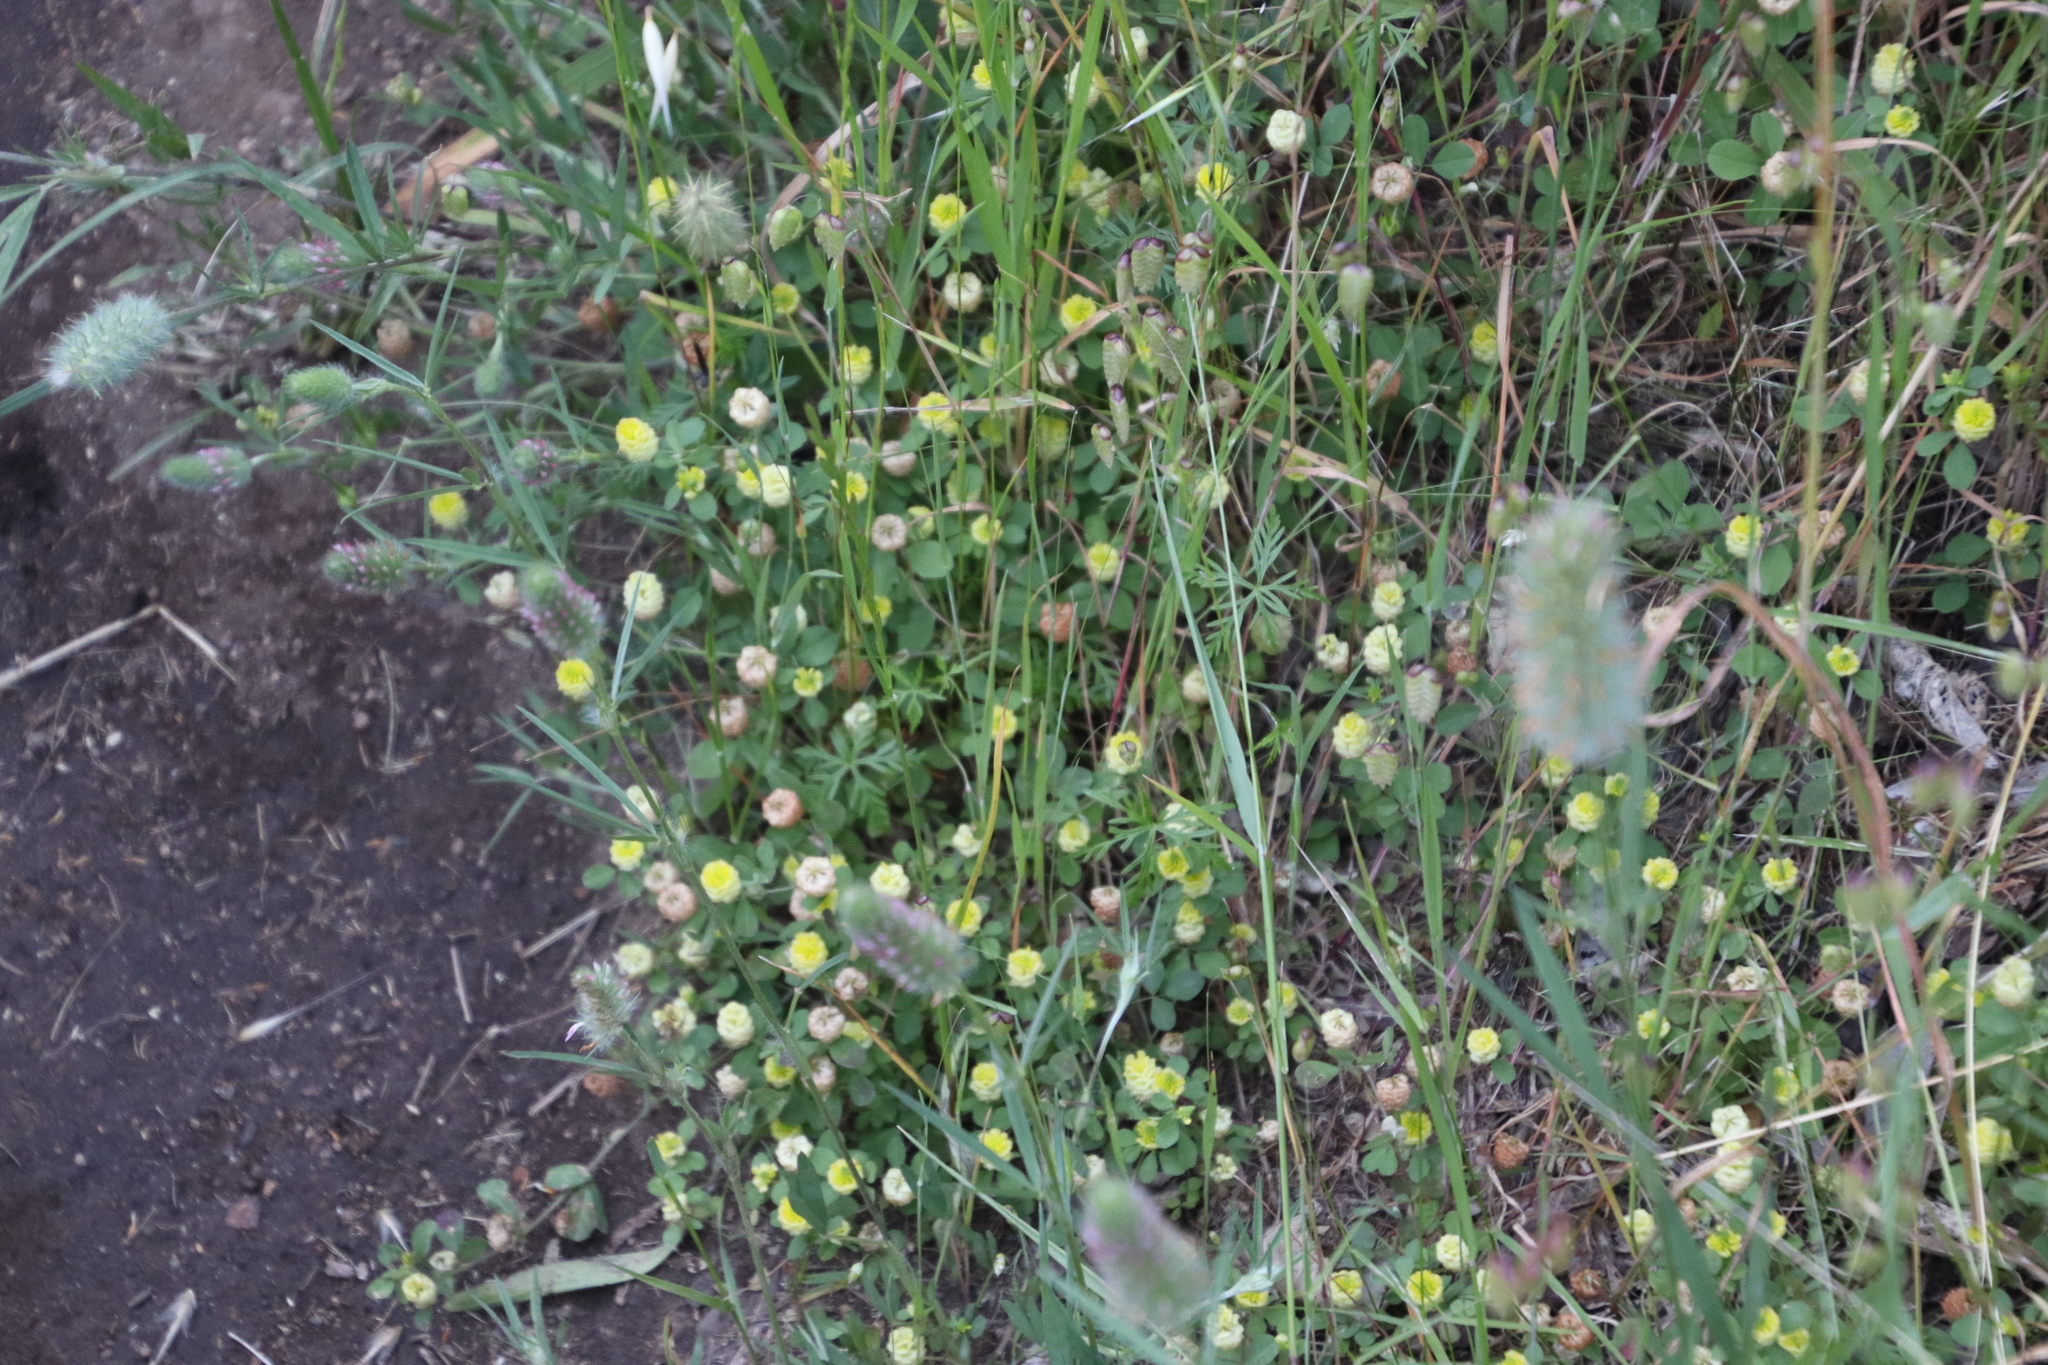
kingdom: Plantae
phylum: Tracheophyta
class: Magnoliopsida
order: Fabales
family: Fabaceae
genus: Trifolium
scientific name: Trifolium campestre
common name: Field clover
